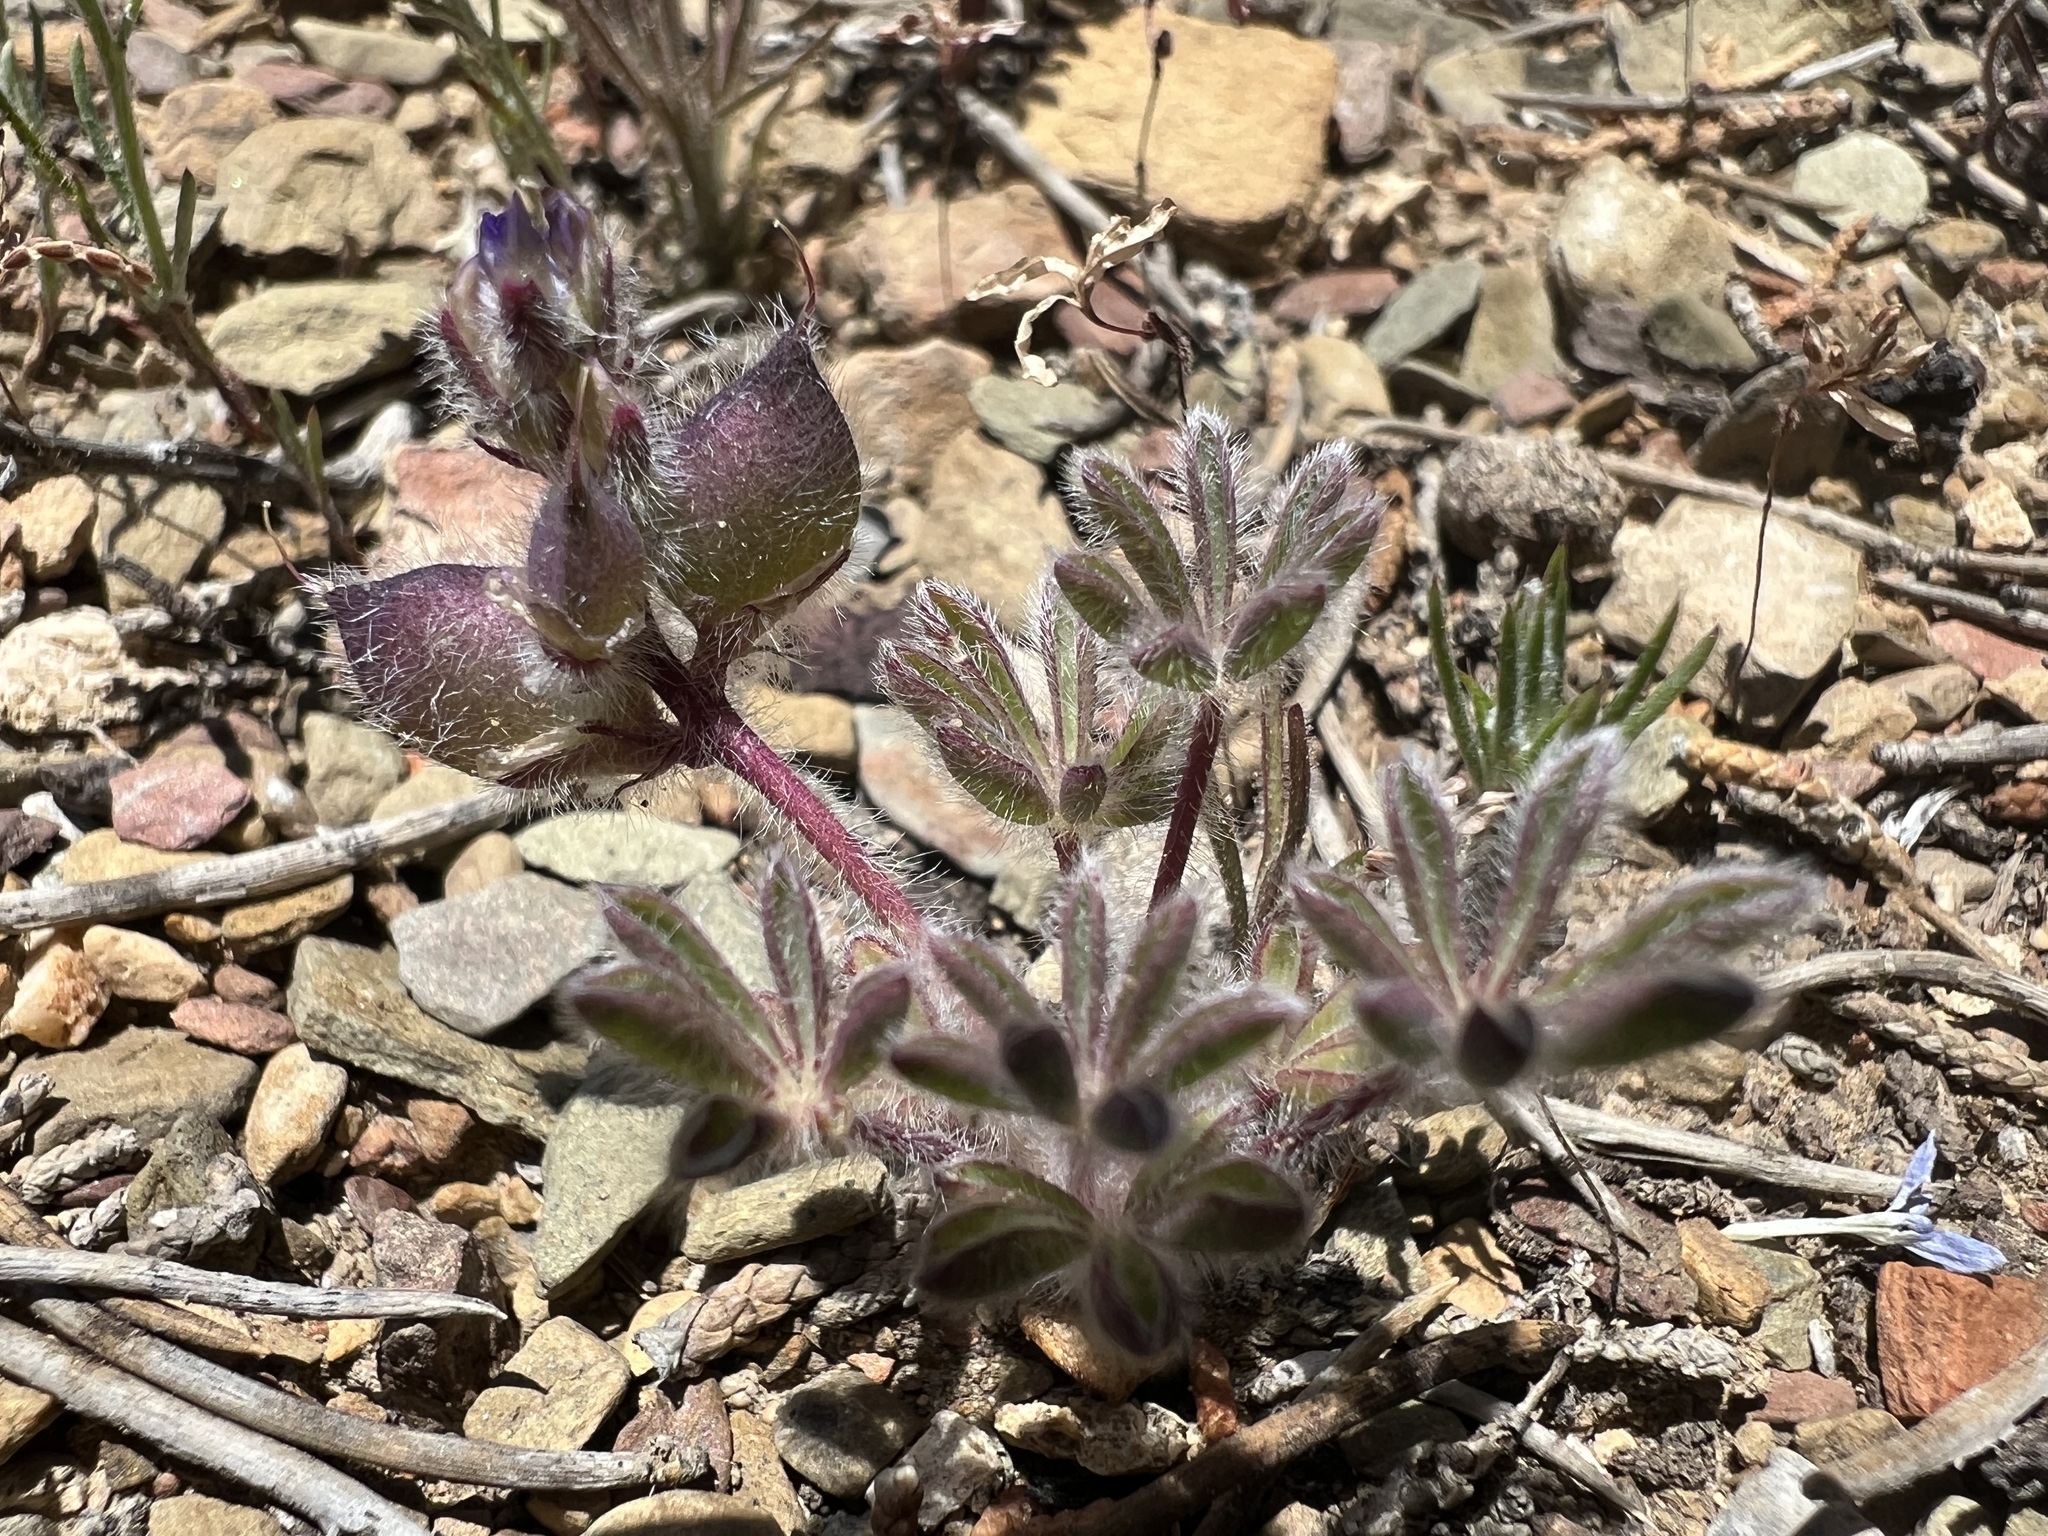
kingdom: Plantae
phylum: Tracheophyta
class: Magnoliopsida
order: Fabales
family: Fabaceae
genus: Lupinus
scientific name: Lupinus brevicaulis
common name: Sand lupine
